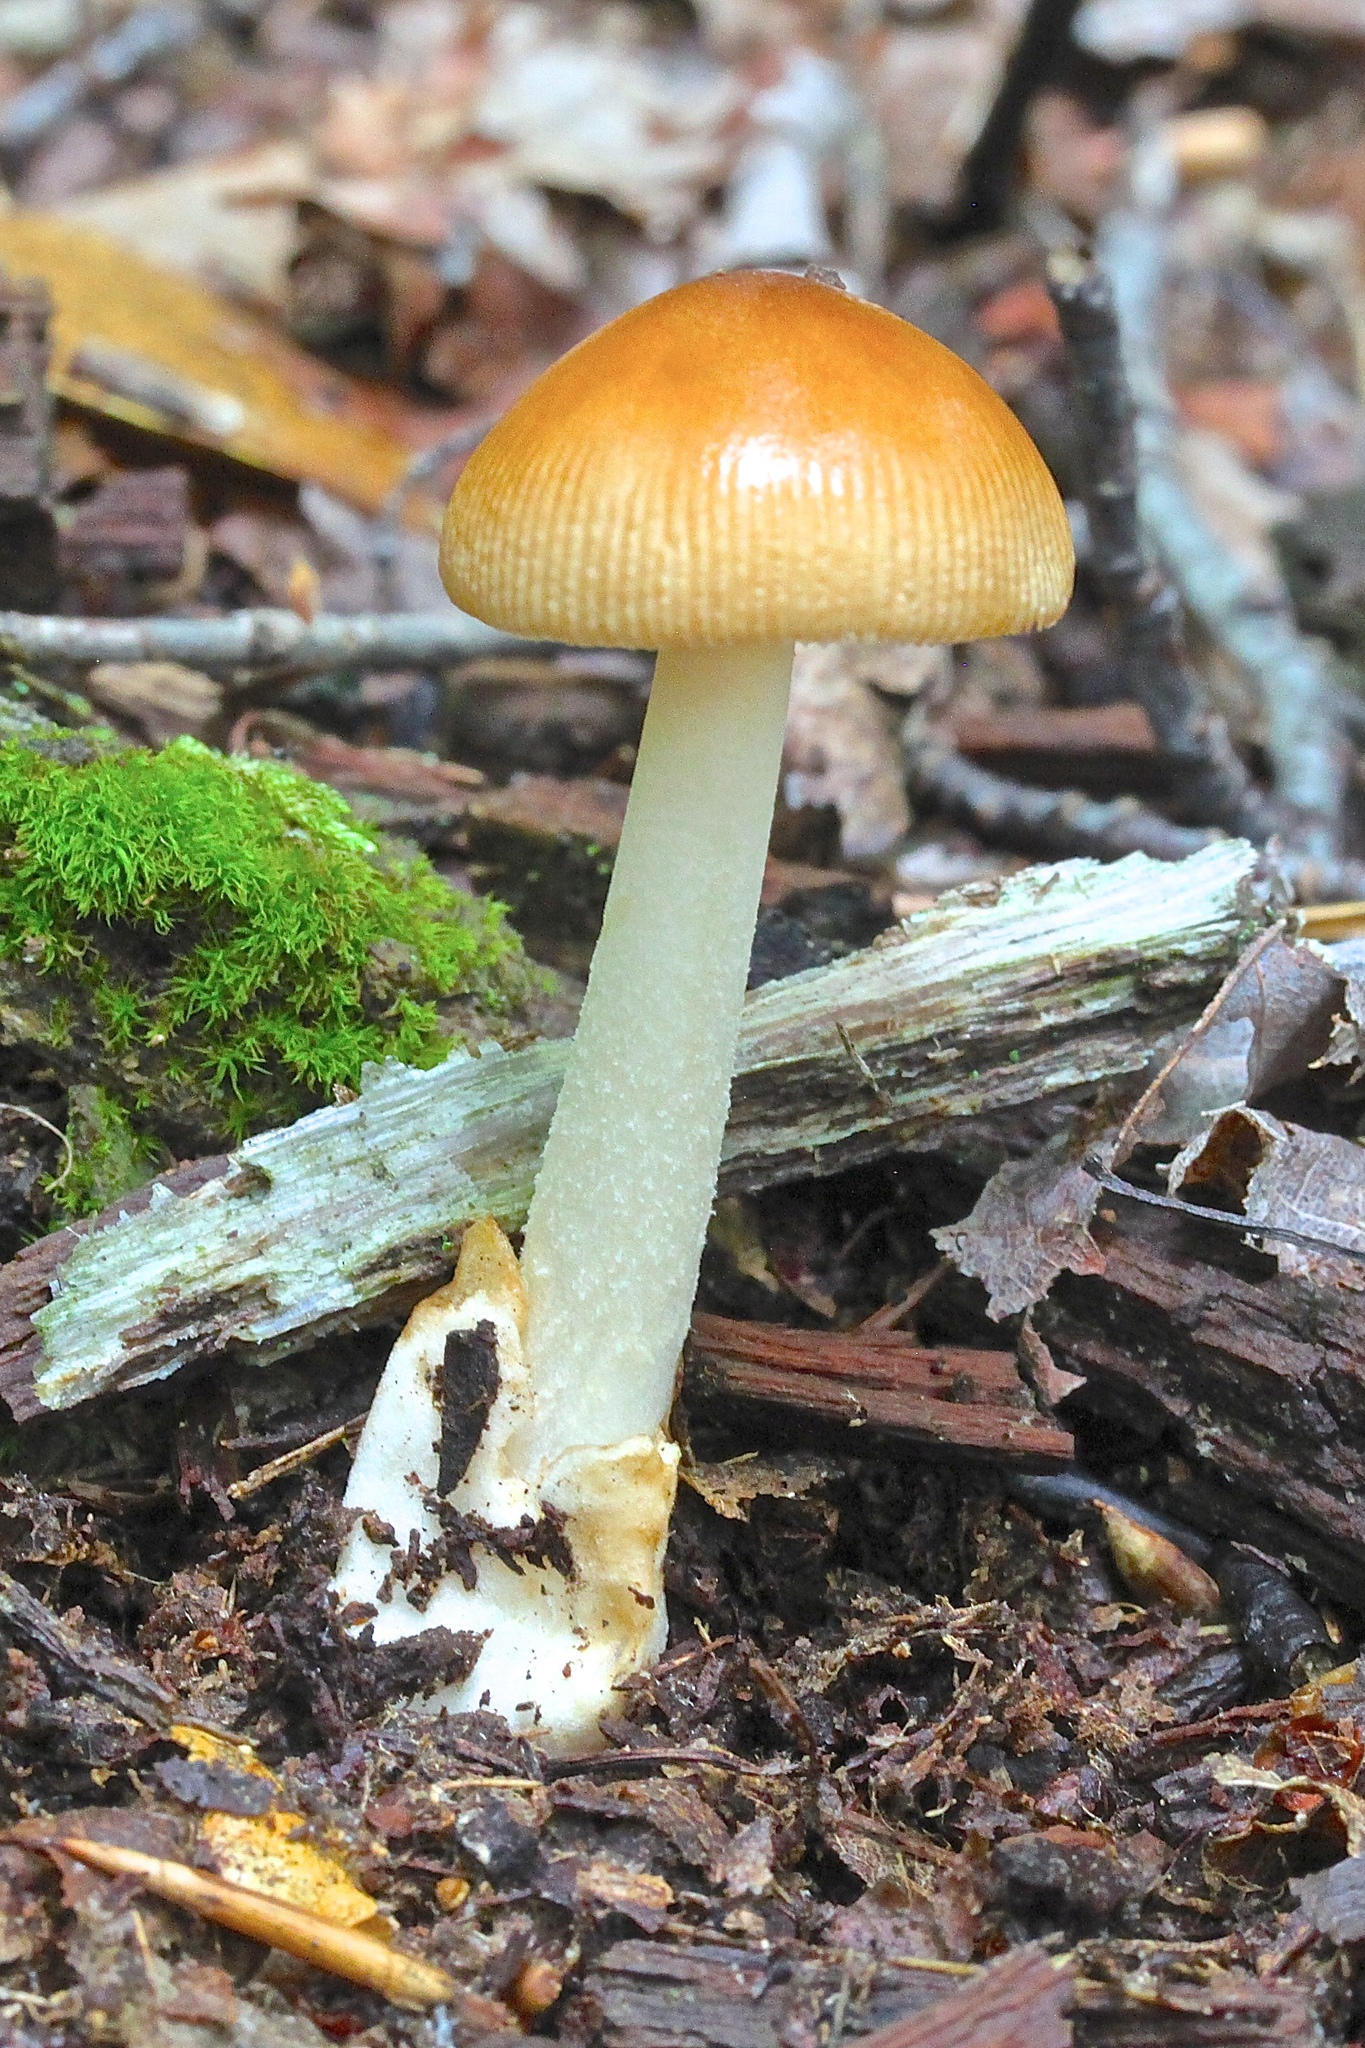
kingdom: Fungi
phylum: Basidiomycota
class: Agaricomycetes
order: Agaricales
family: Amanitaceae
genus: Amanita
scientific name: Amanita fulva
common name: Tawny grisette
